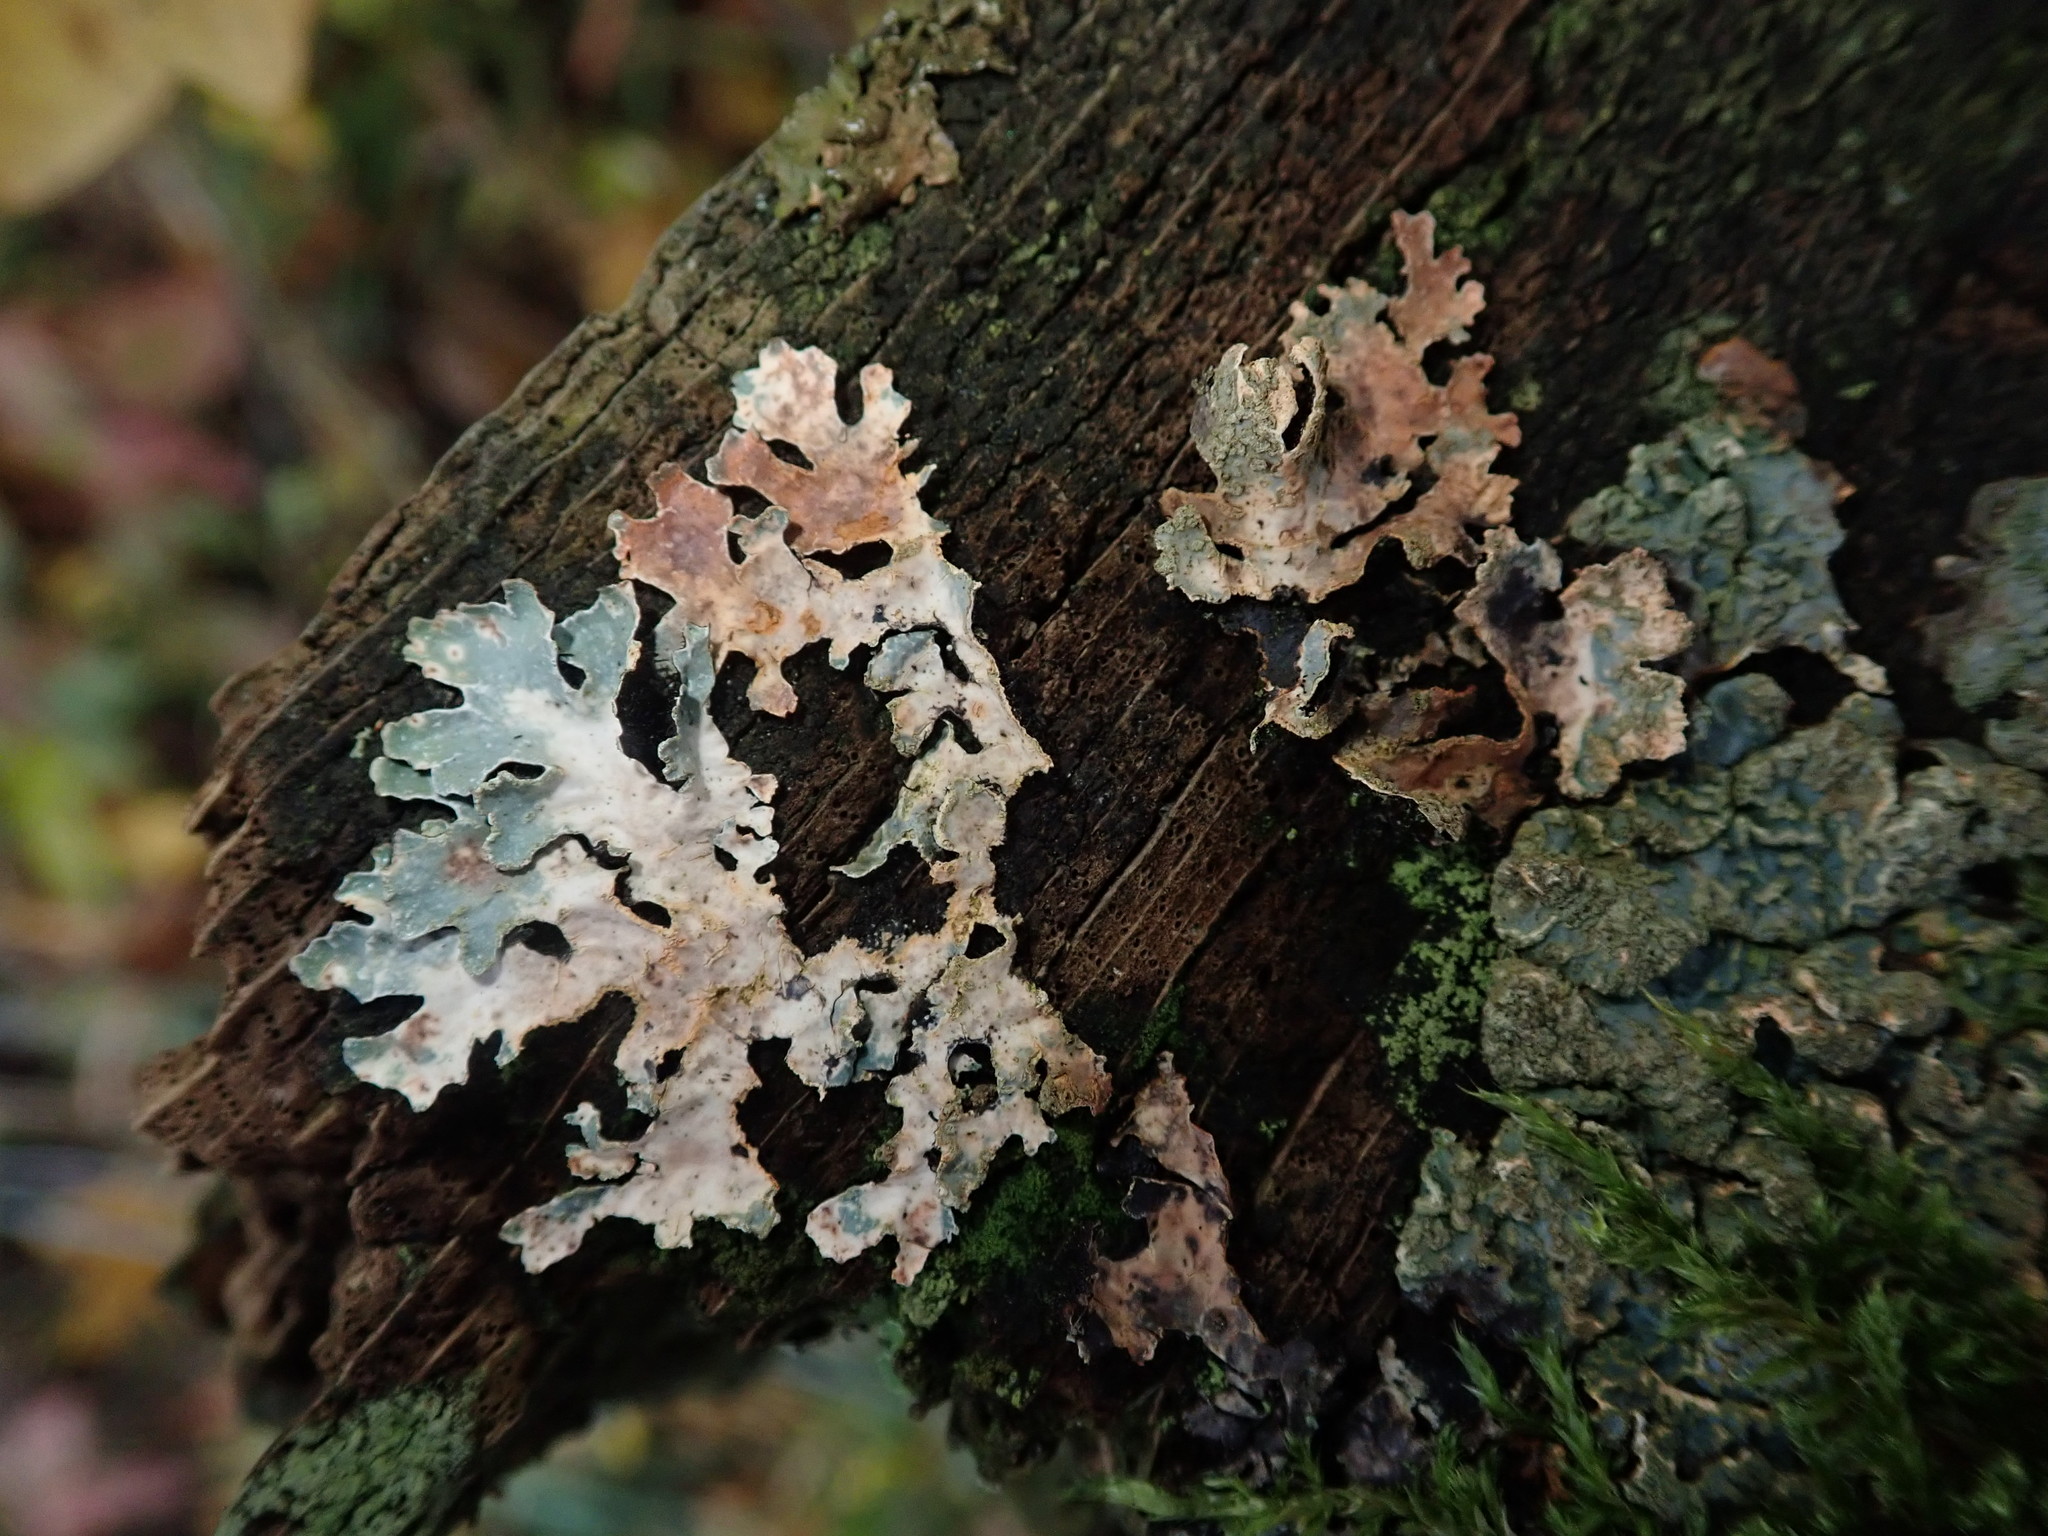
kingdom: Fungi
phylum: Ascomycota
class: Lecanoromycetes
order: Lecanorales
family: Parmeliaceae
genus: Parmelia
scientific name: Parmelia sulcata
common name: Netted shield lichen
